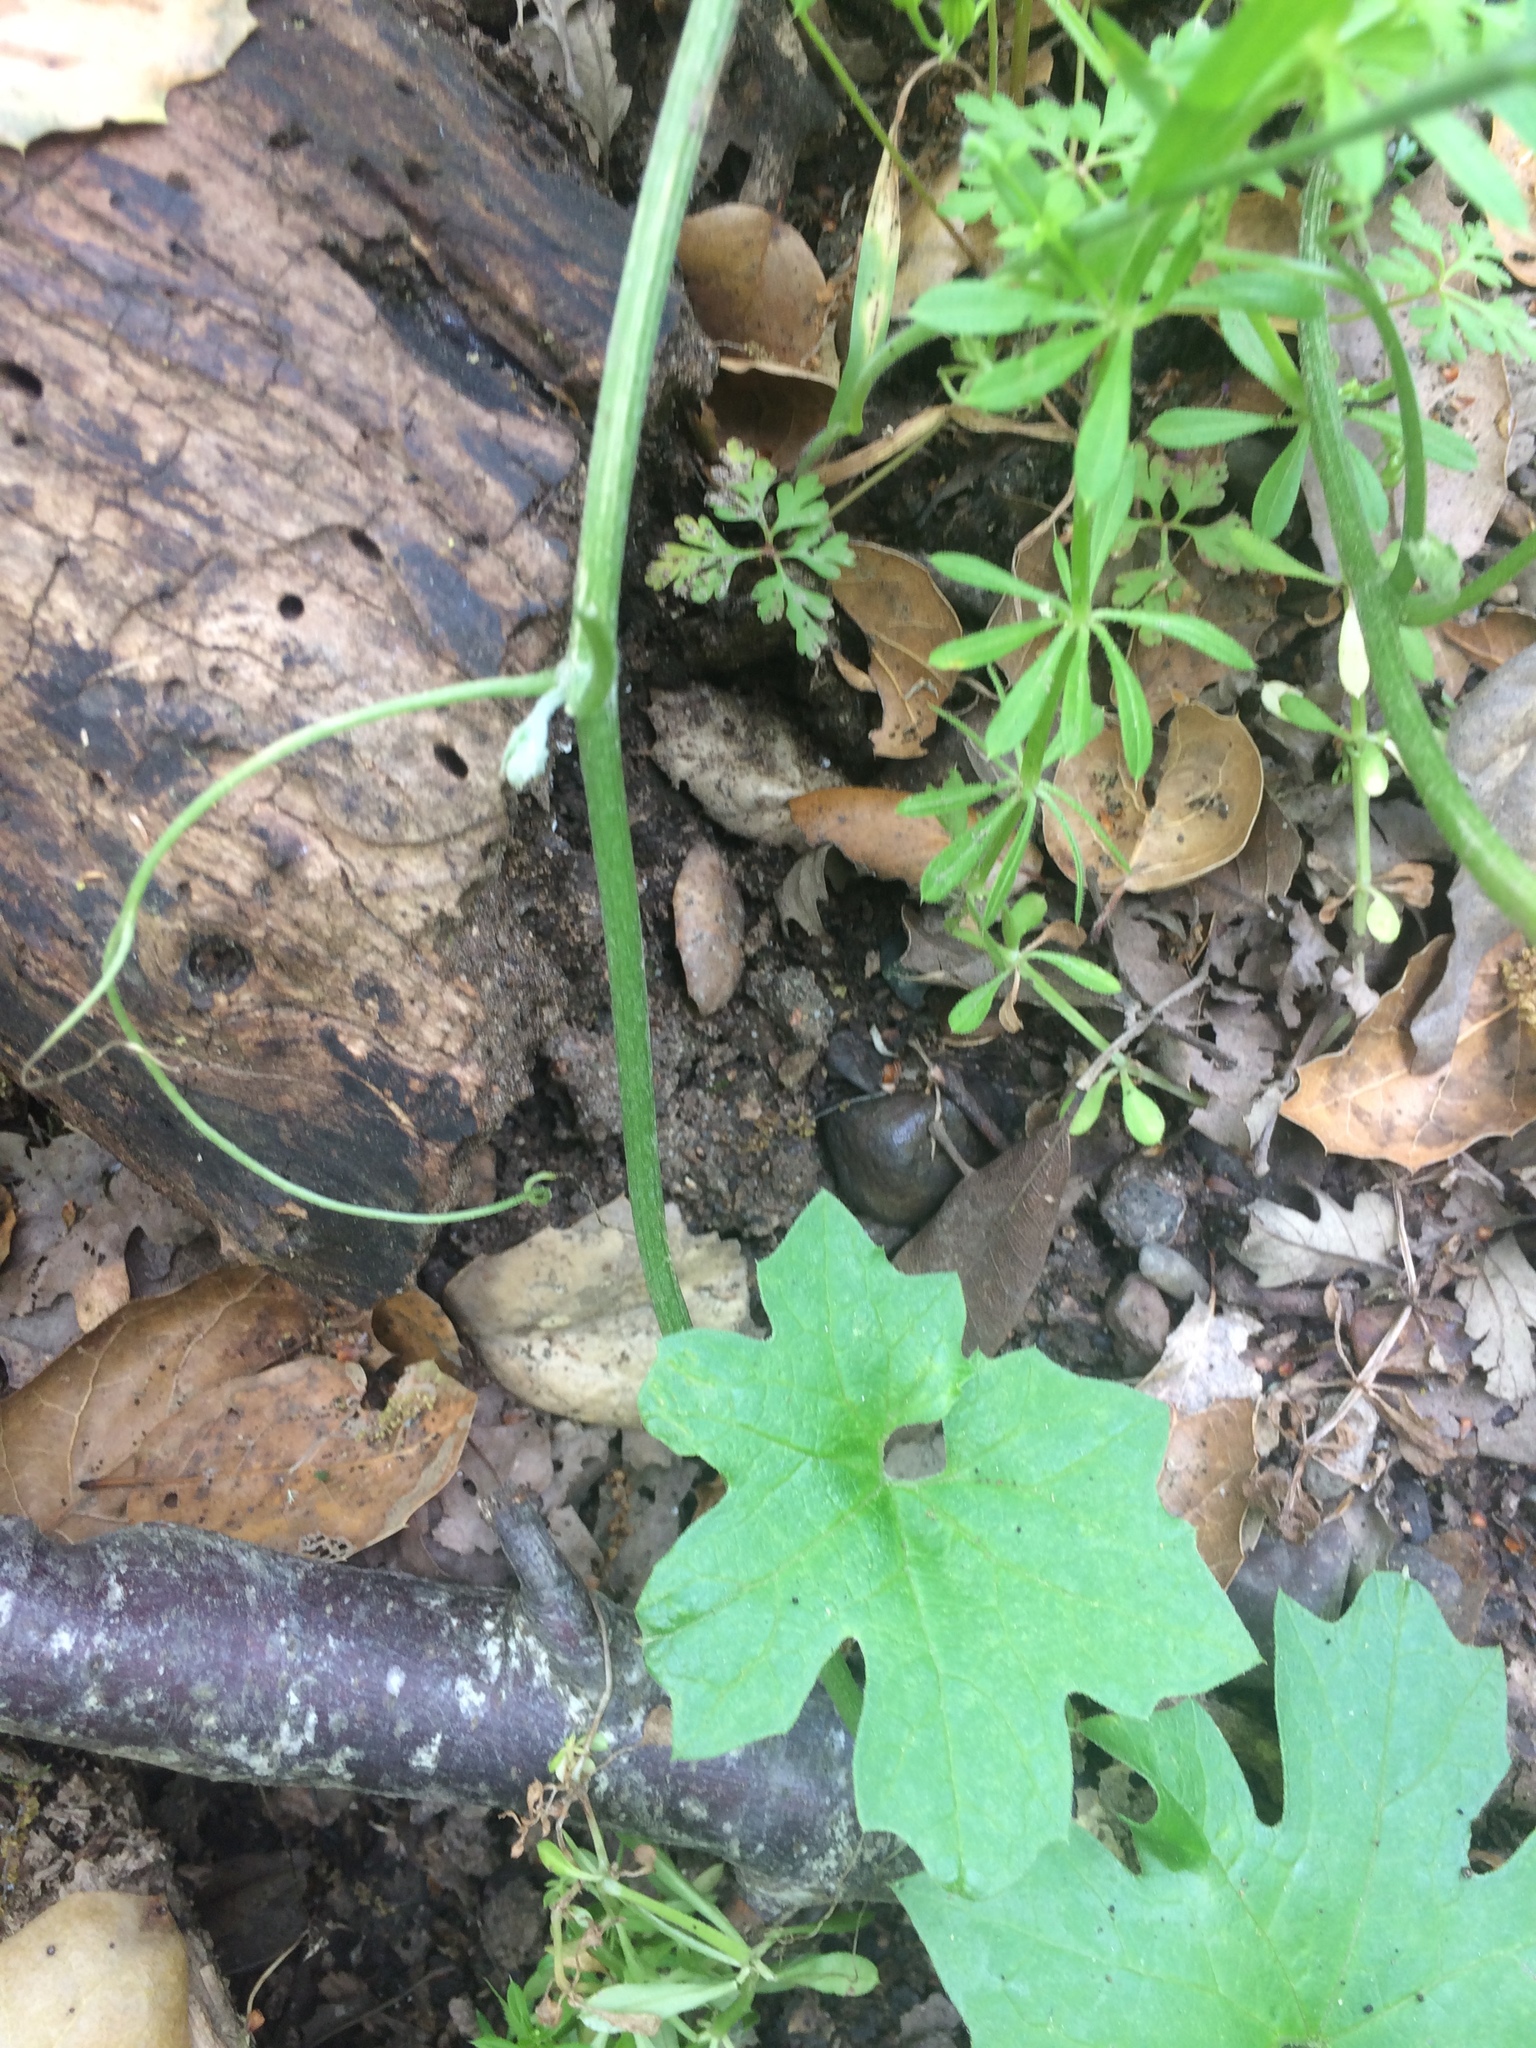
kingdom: Plantae
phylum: Tracheophyta
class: Magnoliopsida
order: Cucurbitales
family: Cucurbitaceae
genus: Marah
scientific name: Marah fabacea
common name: California manroot
